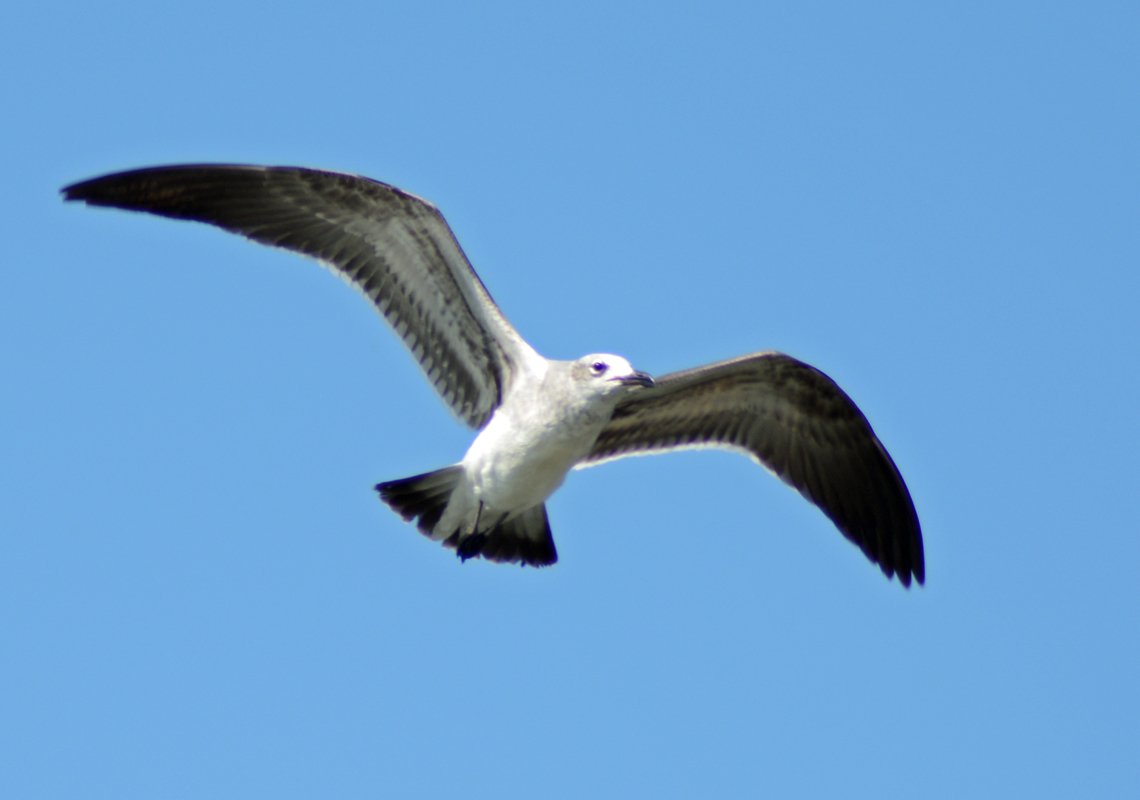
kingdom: Animalia
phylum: Chordata
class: Aves
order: Charadriiformes
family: Laridae
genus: Leucophaeus
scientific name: Leucophaeus atricilla
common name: Laughing gull
